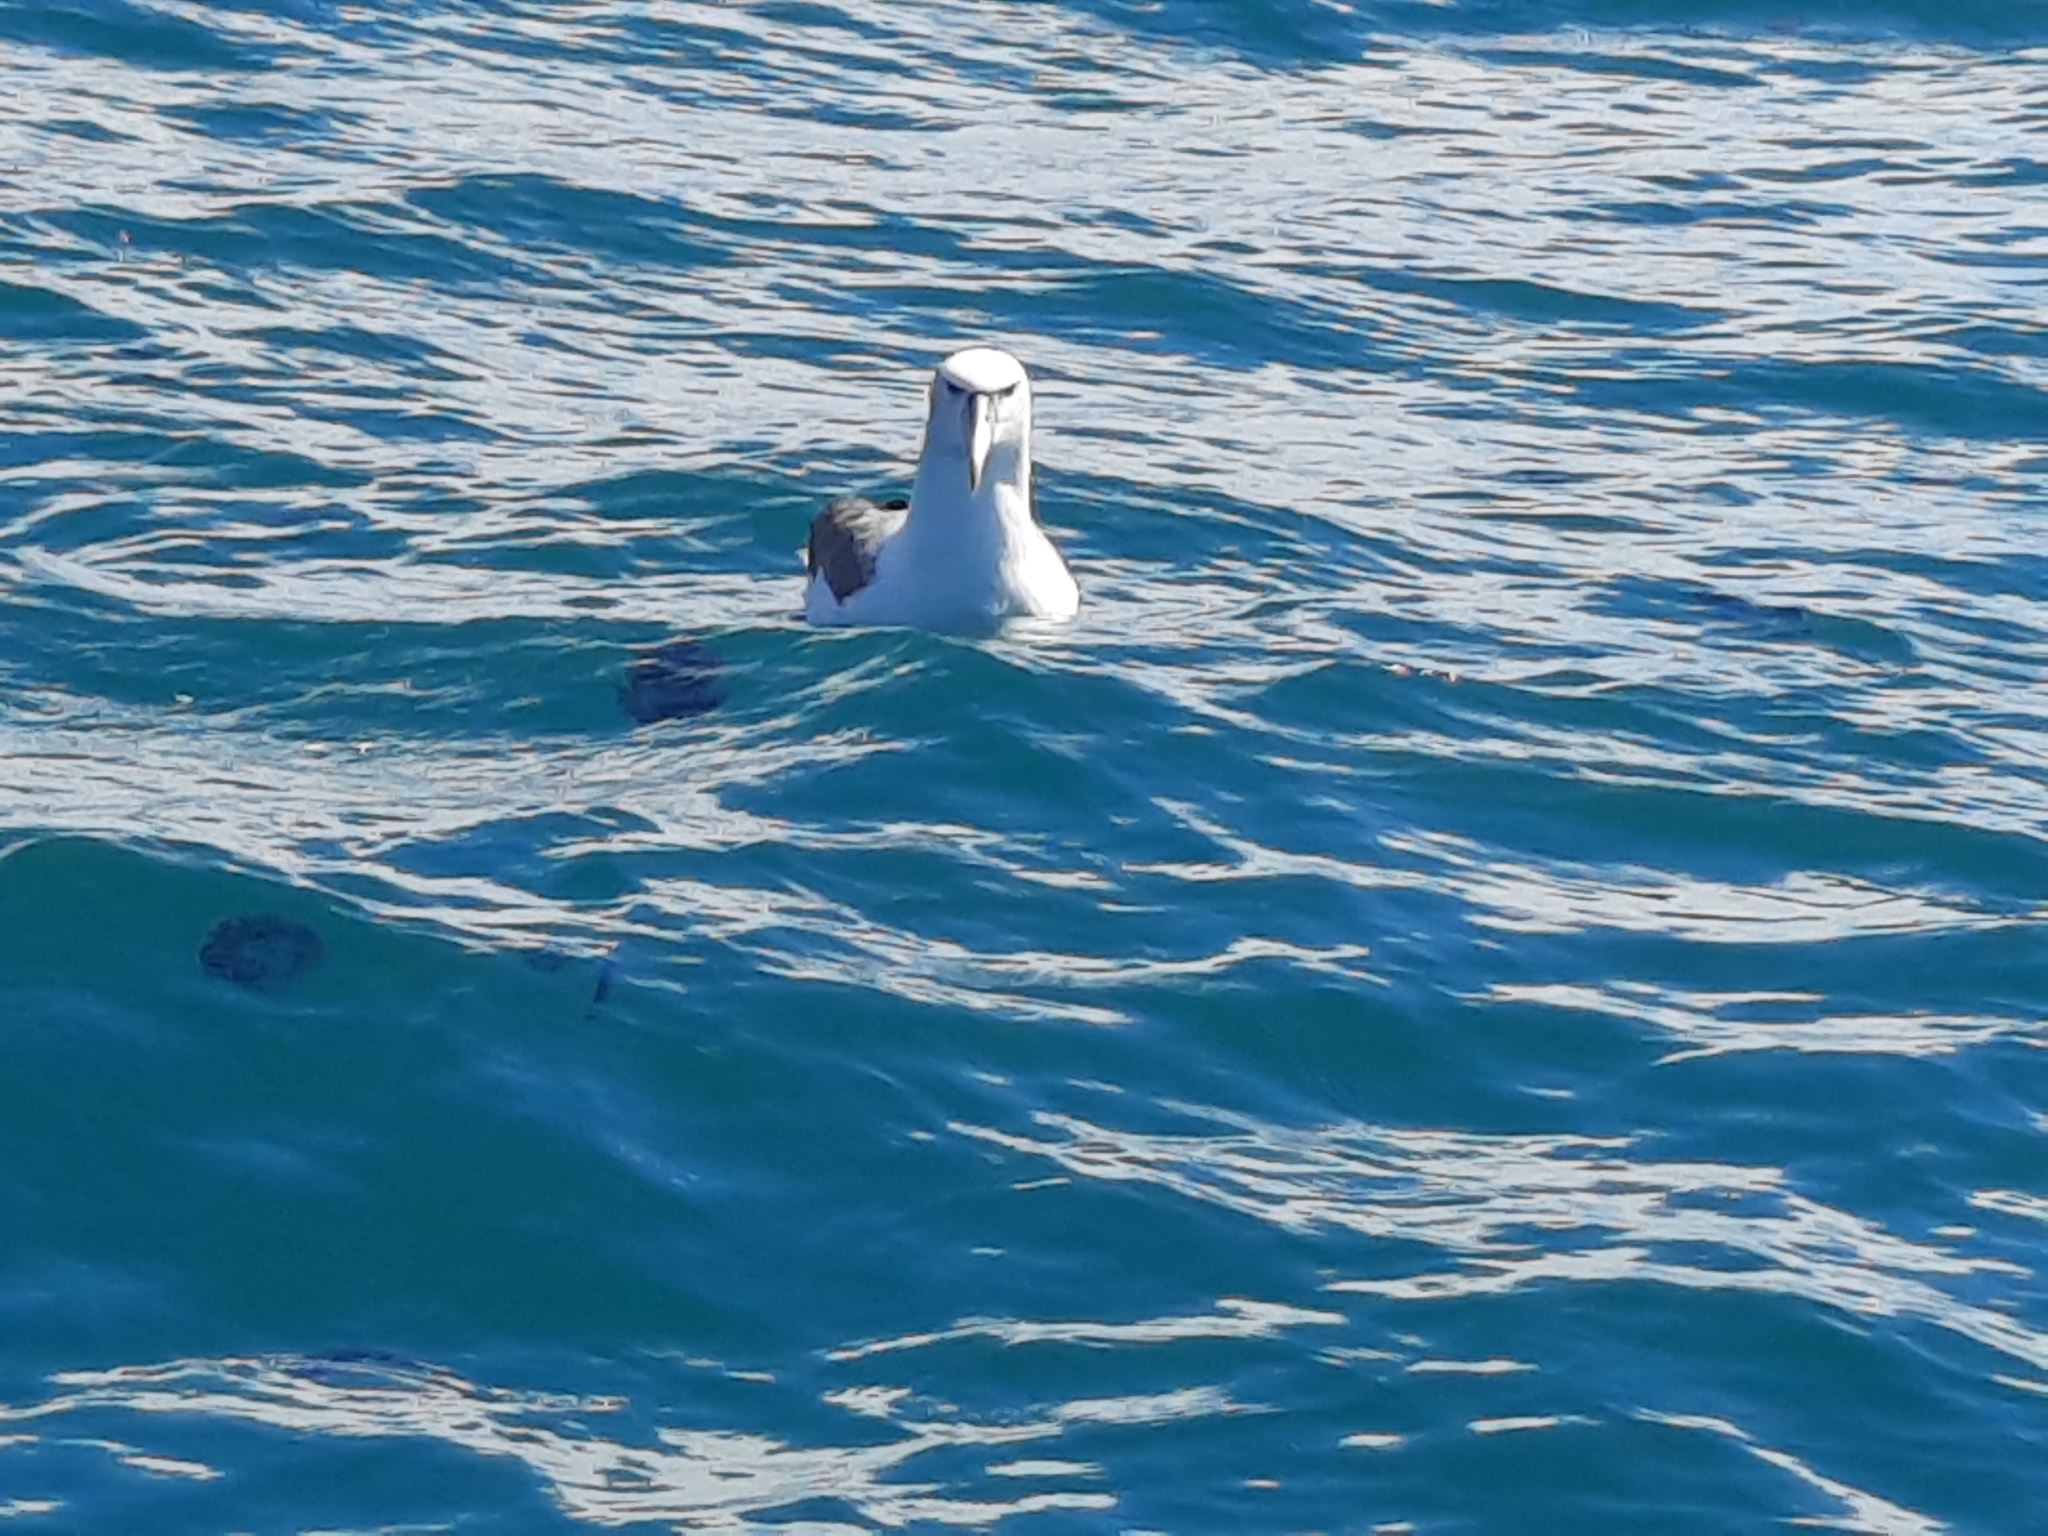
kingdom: Animalia
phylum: Chordata
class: Aves
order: Procellariiformes
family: Diomedeidae
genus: Thalassarche
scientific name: Thalassarche cauta
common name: Shy albatross
